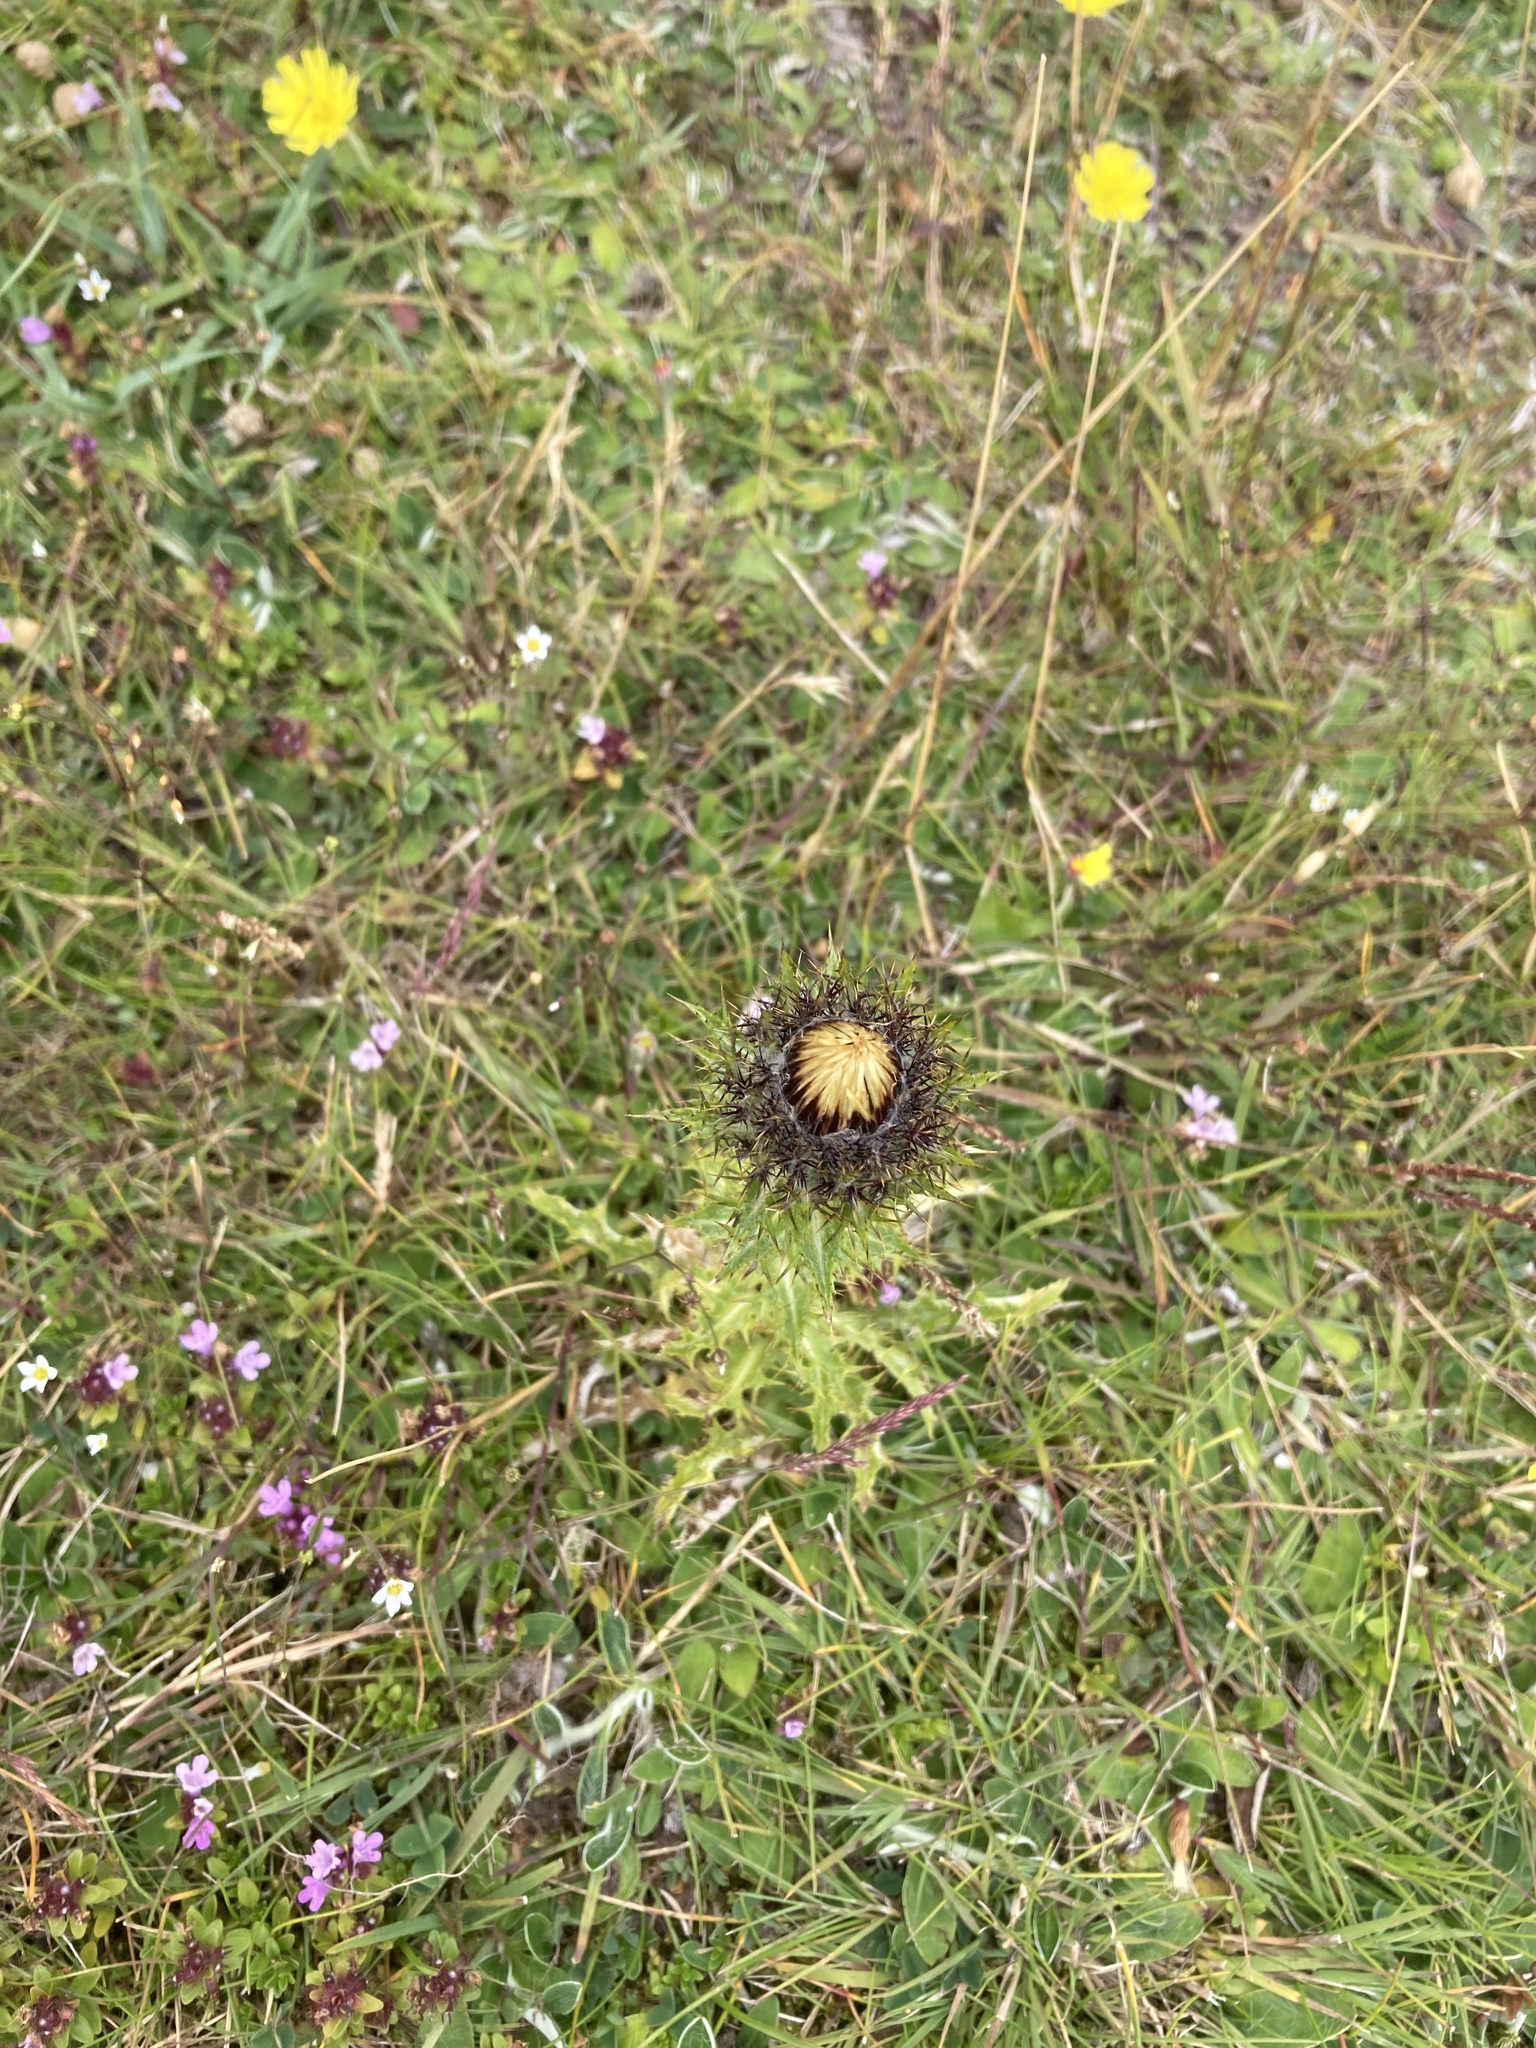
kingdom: Plantae
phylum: Tracheophyta
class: Magnoliopsida
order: Asterales
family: Asteraceae
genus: Carlina
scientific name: Carlina vulgaris
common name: Carline thistle
